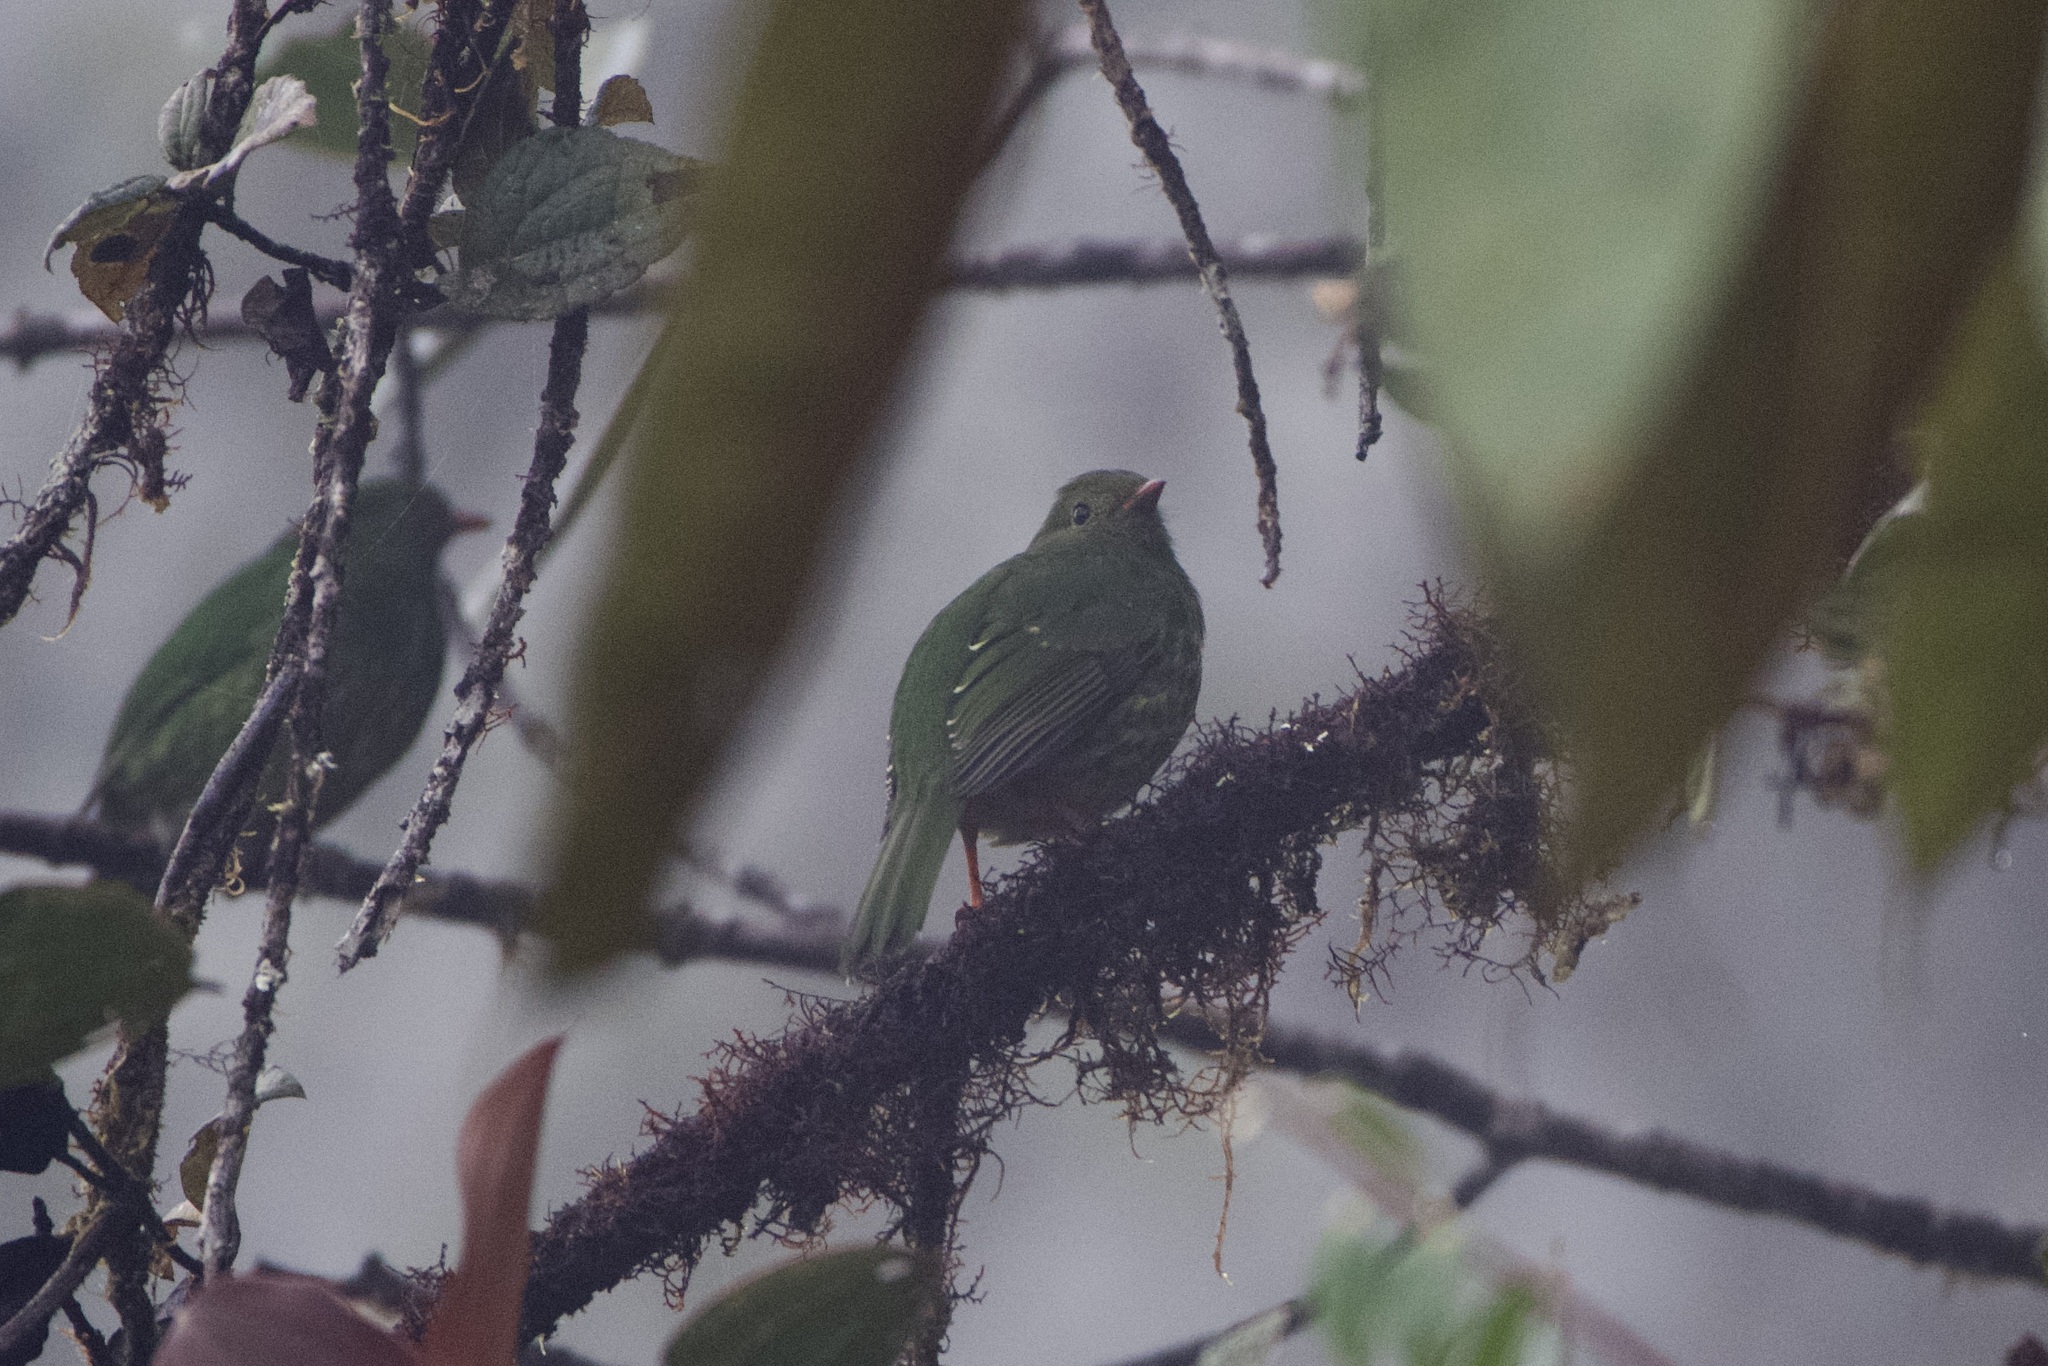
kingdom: Animalia
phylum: Chordata
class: Aves
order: Passeriformes
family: Cotingidae
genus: Pipreola
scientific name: Pipreola arcuata
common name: Barred fruiteater
